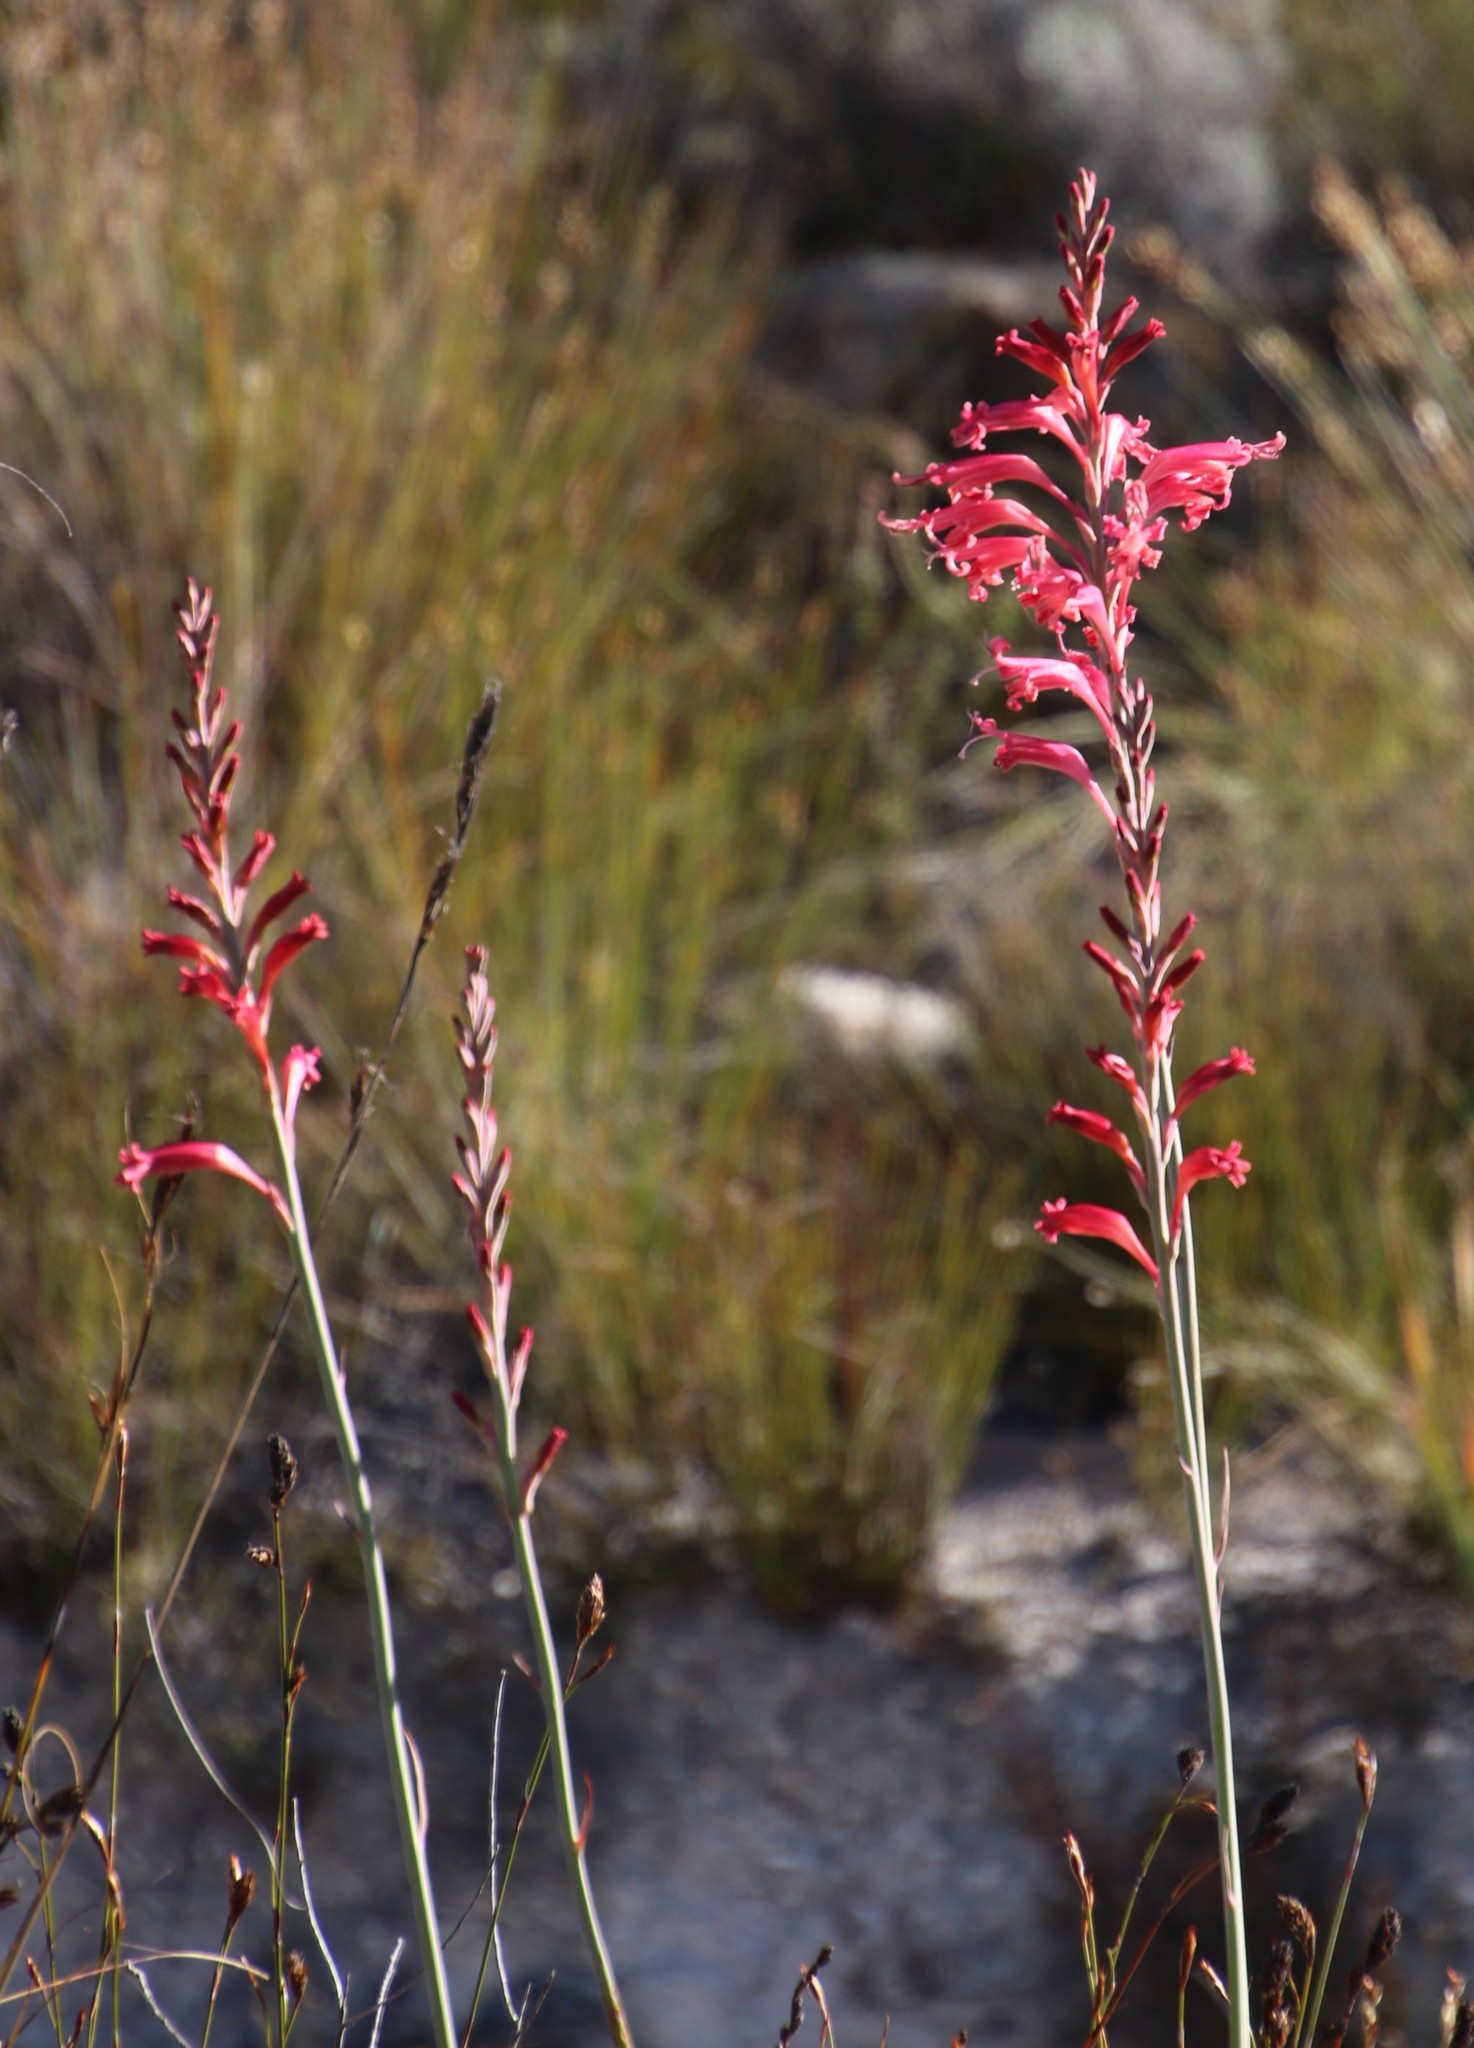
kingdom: Plantae
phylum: Tracheophyta
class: Liliopsida
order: Asparagales
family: Iridaceae
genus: Tritoniopsis
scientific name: Tritoniopsis antholyza
